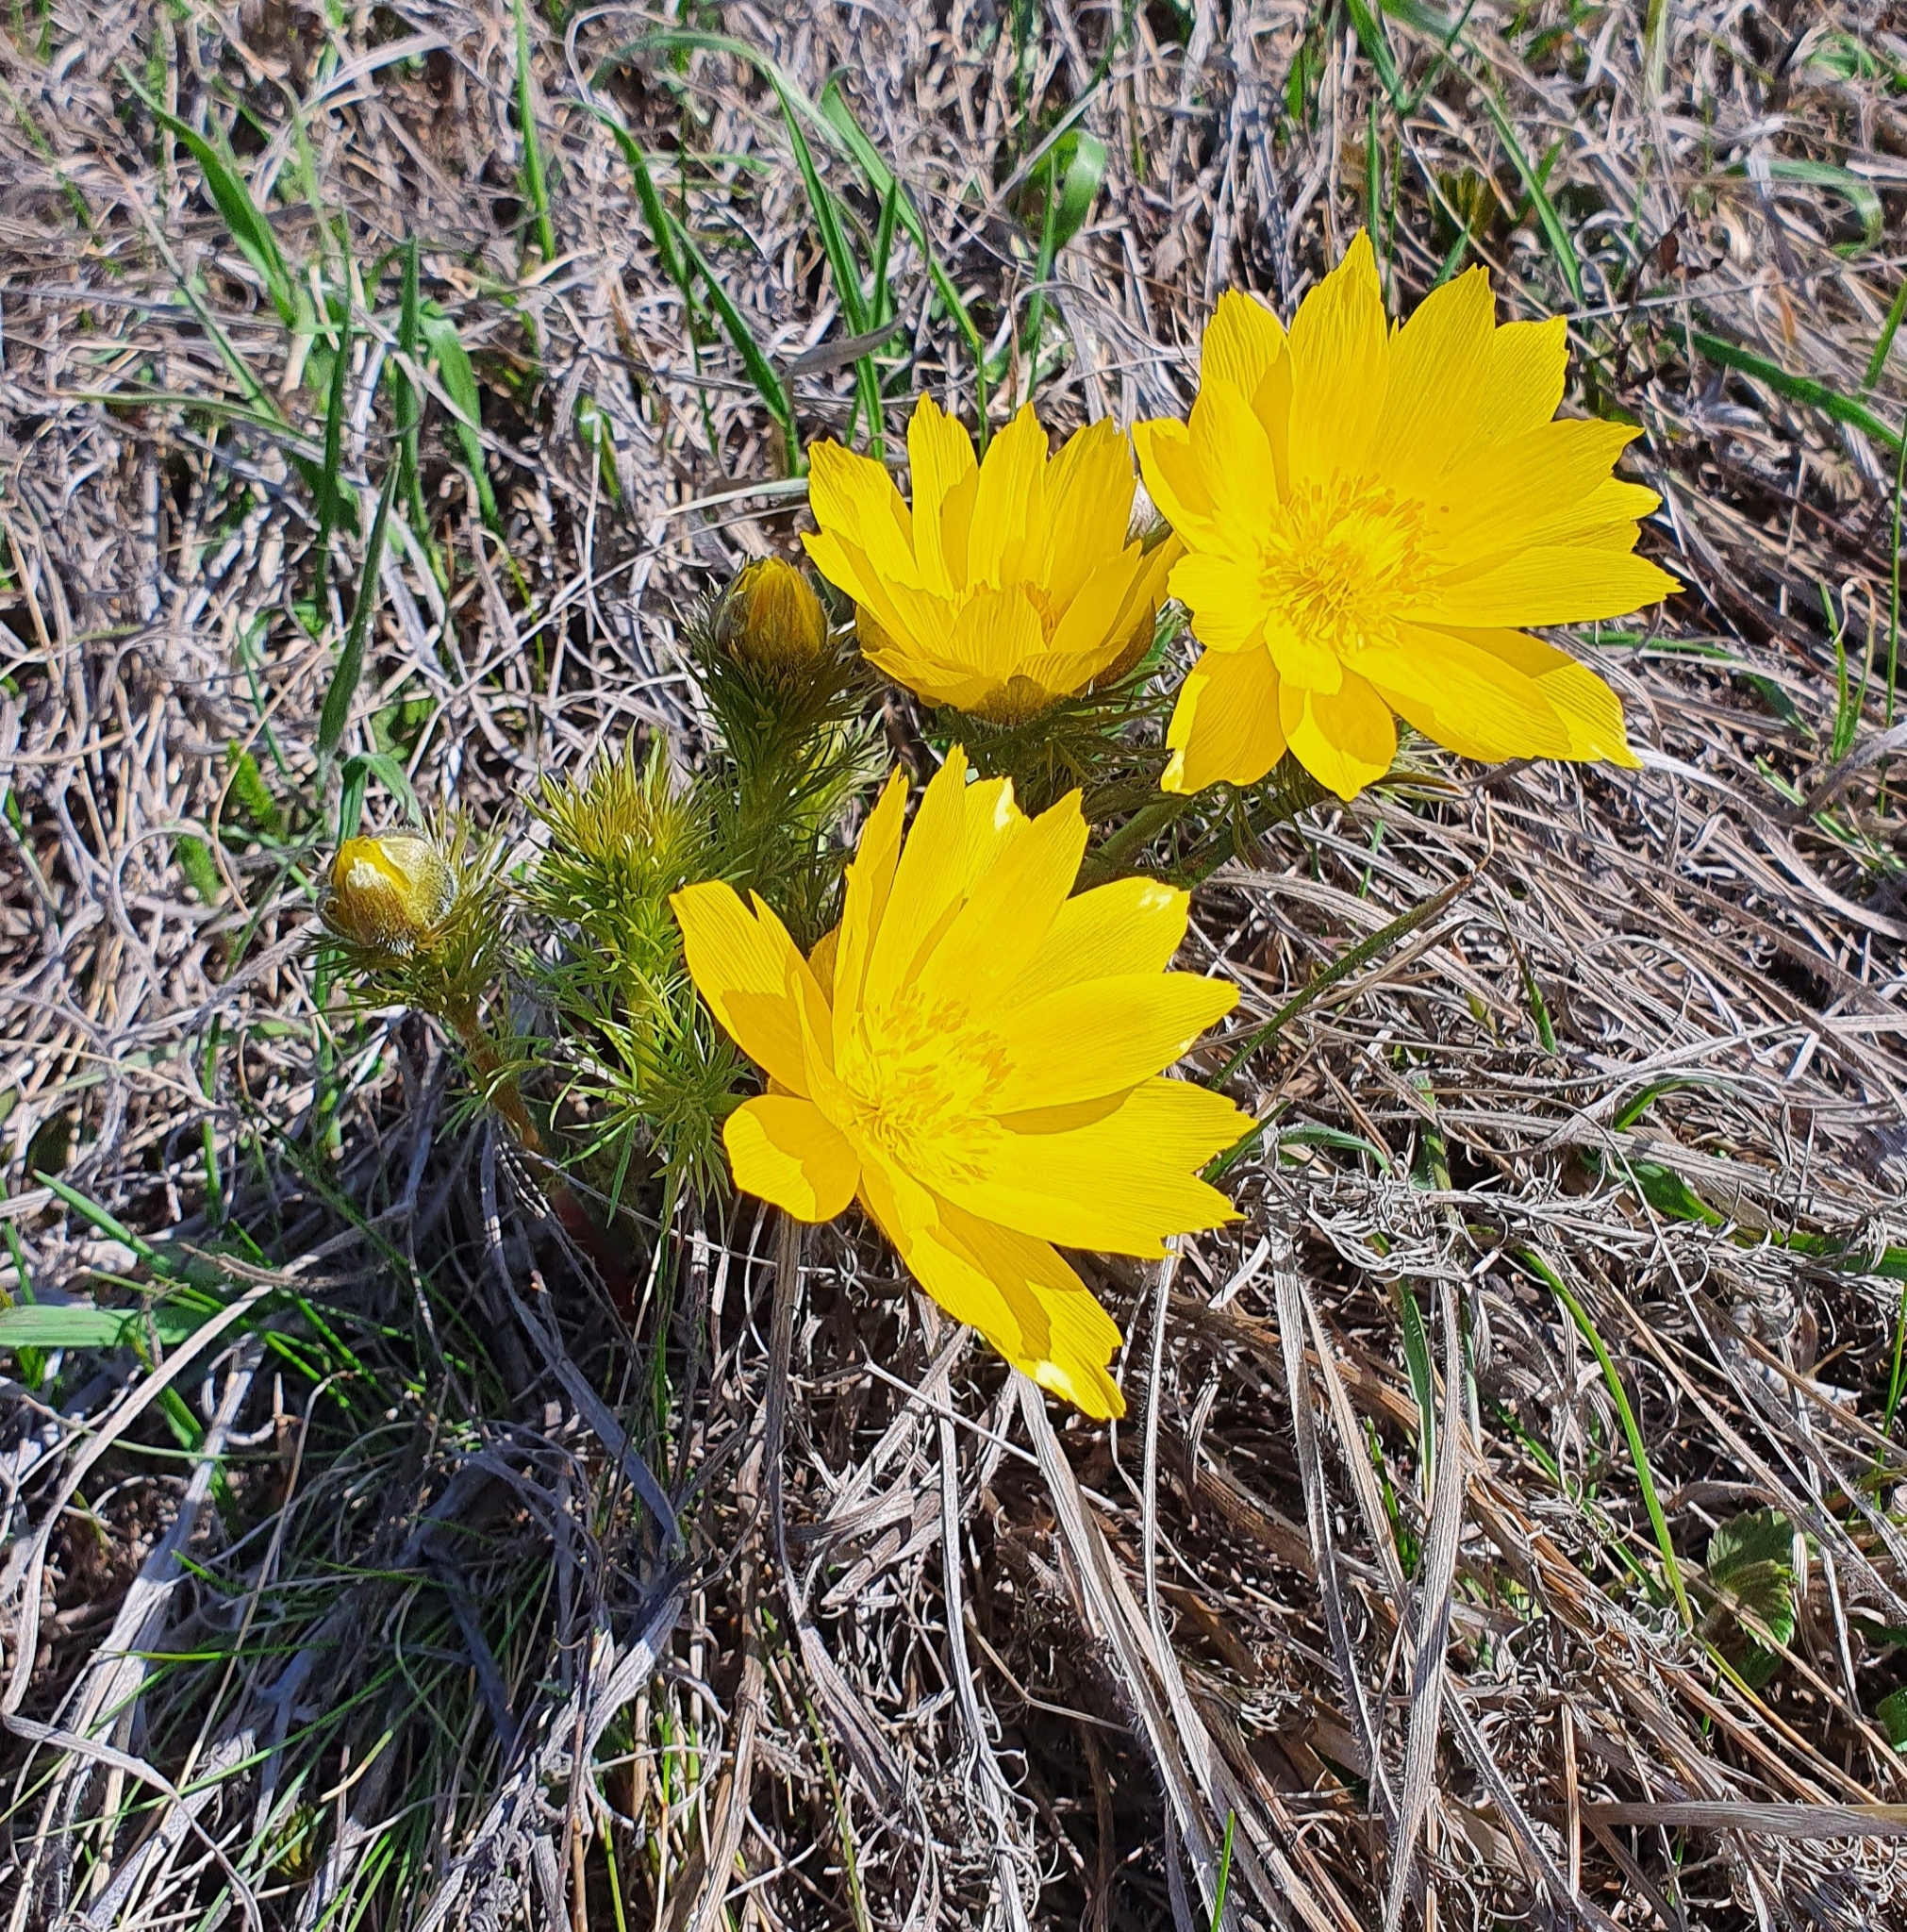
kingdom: Plantae
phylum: Tracheophyta
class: Magnoliopsida
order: Ranunculales
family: Ranunculaceae
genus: Adonis
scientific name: Adonis vernalis
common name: Yellow pheasants-eye
